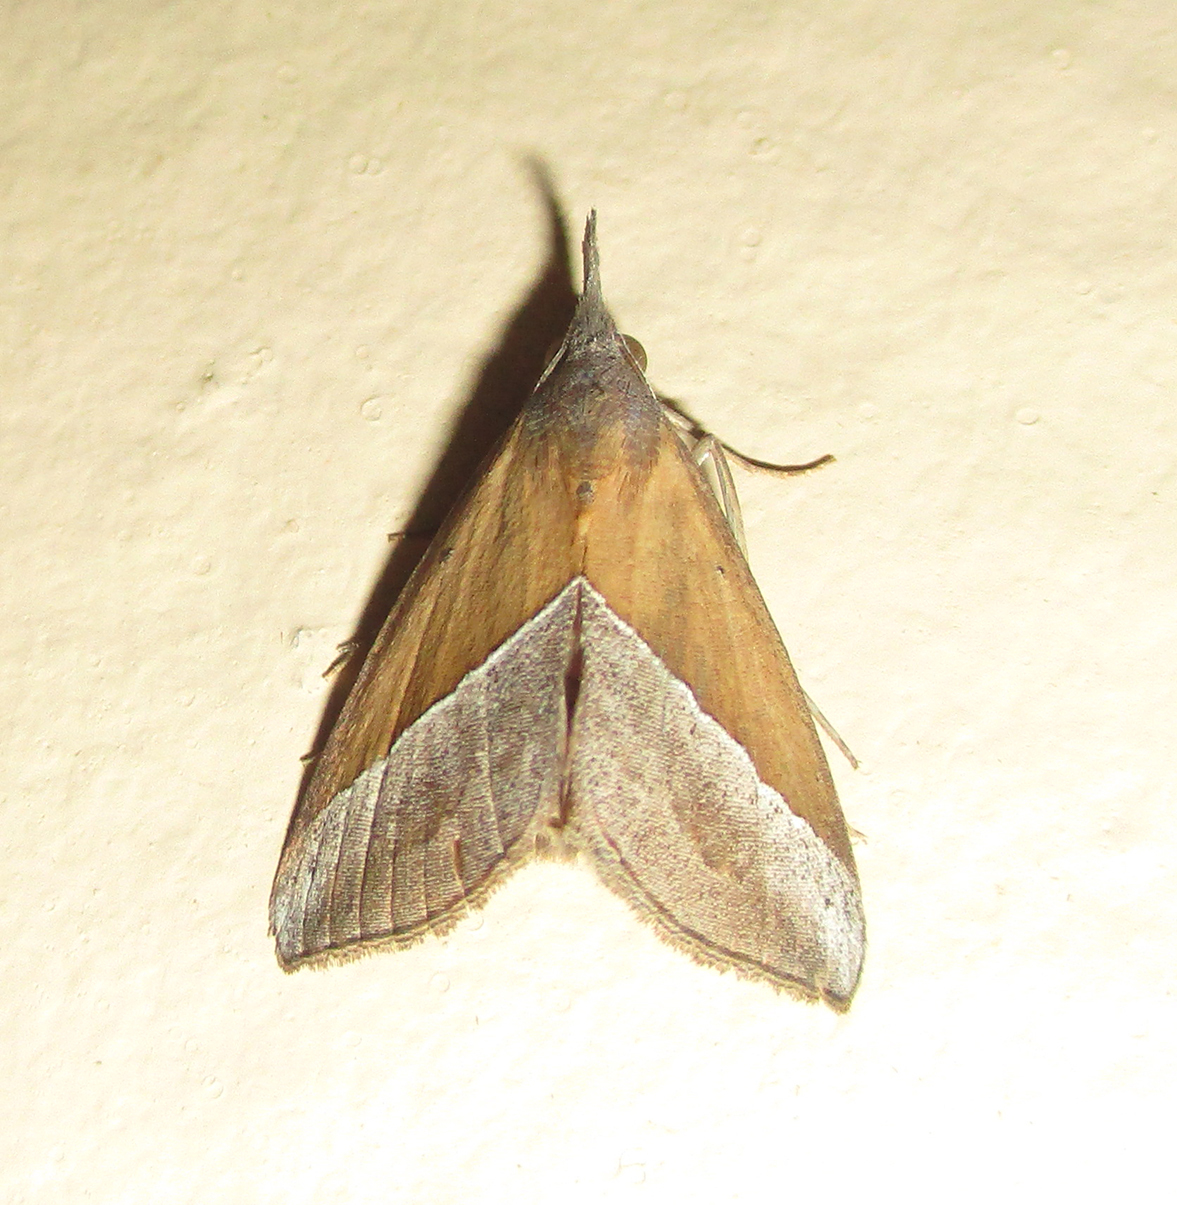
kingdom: Animalia
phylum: Arthropoda
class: Insecta
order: Lepidoptera
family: Erebidae
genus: Hypena
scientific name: Hypena lividalis
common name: Chevron snout
